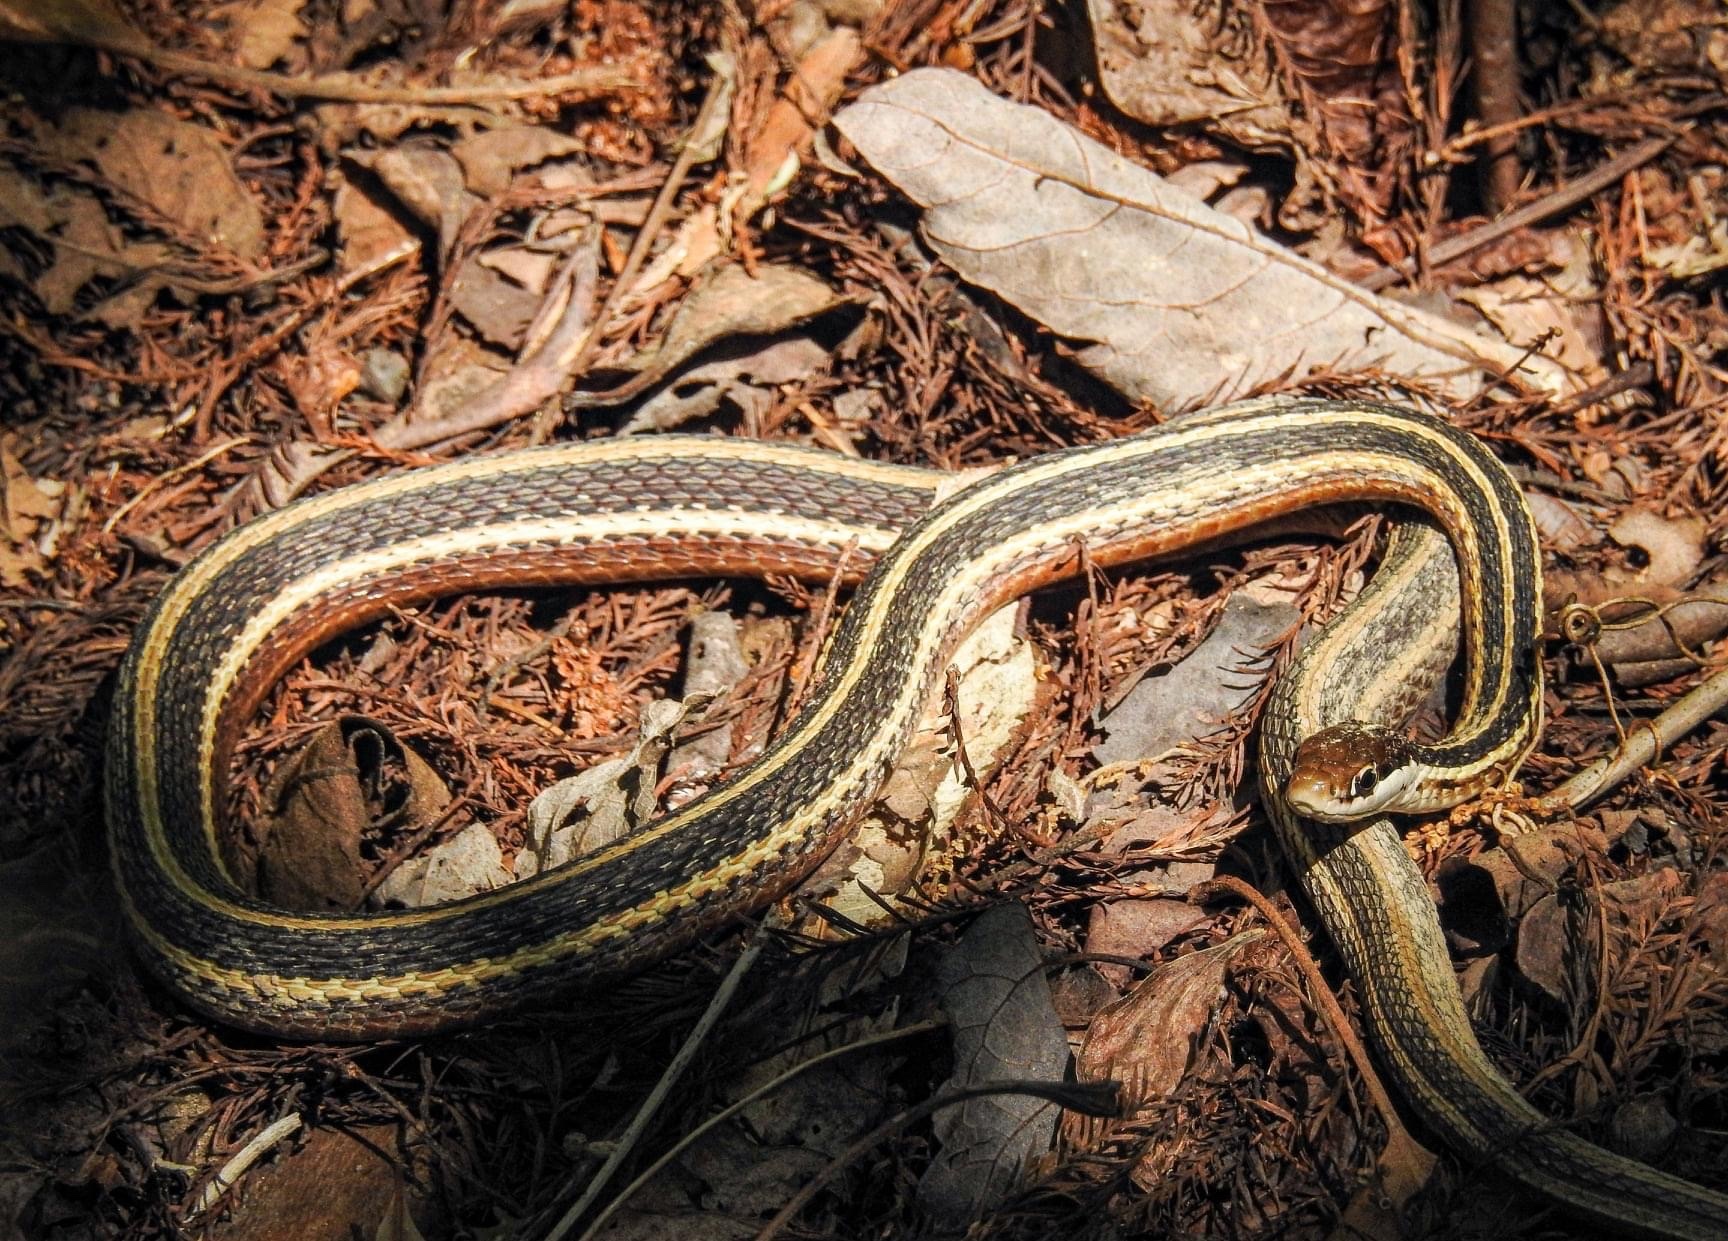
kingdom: Animalia
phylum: Chordata
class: Squamata
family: Colubridae
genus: Thamnophis
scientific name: Thamnophis saurita
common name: Eastern ribbonsnake
